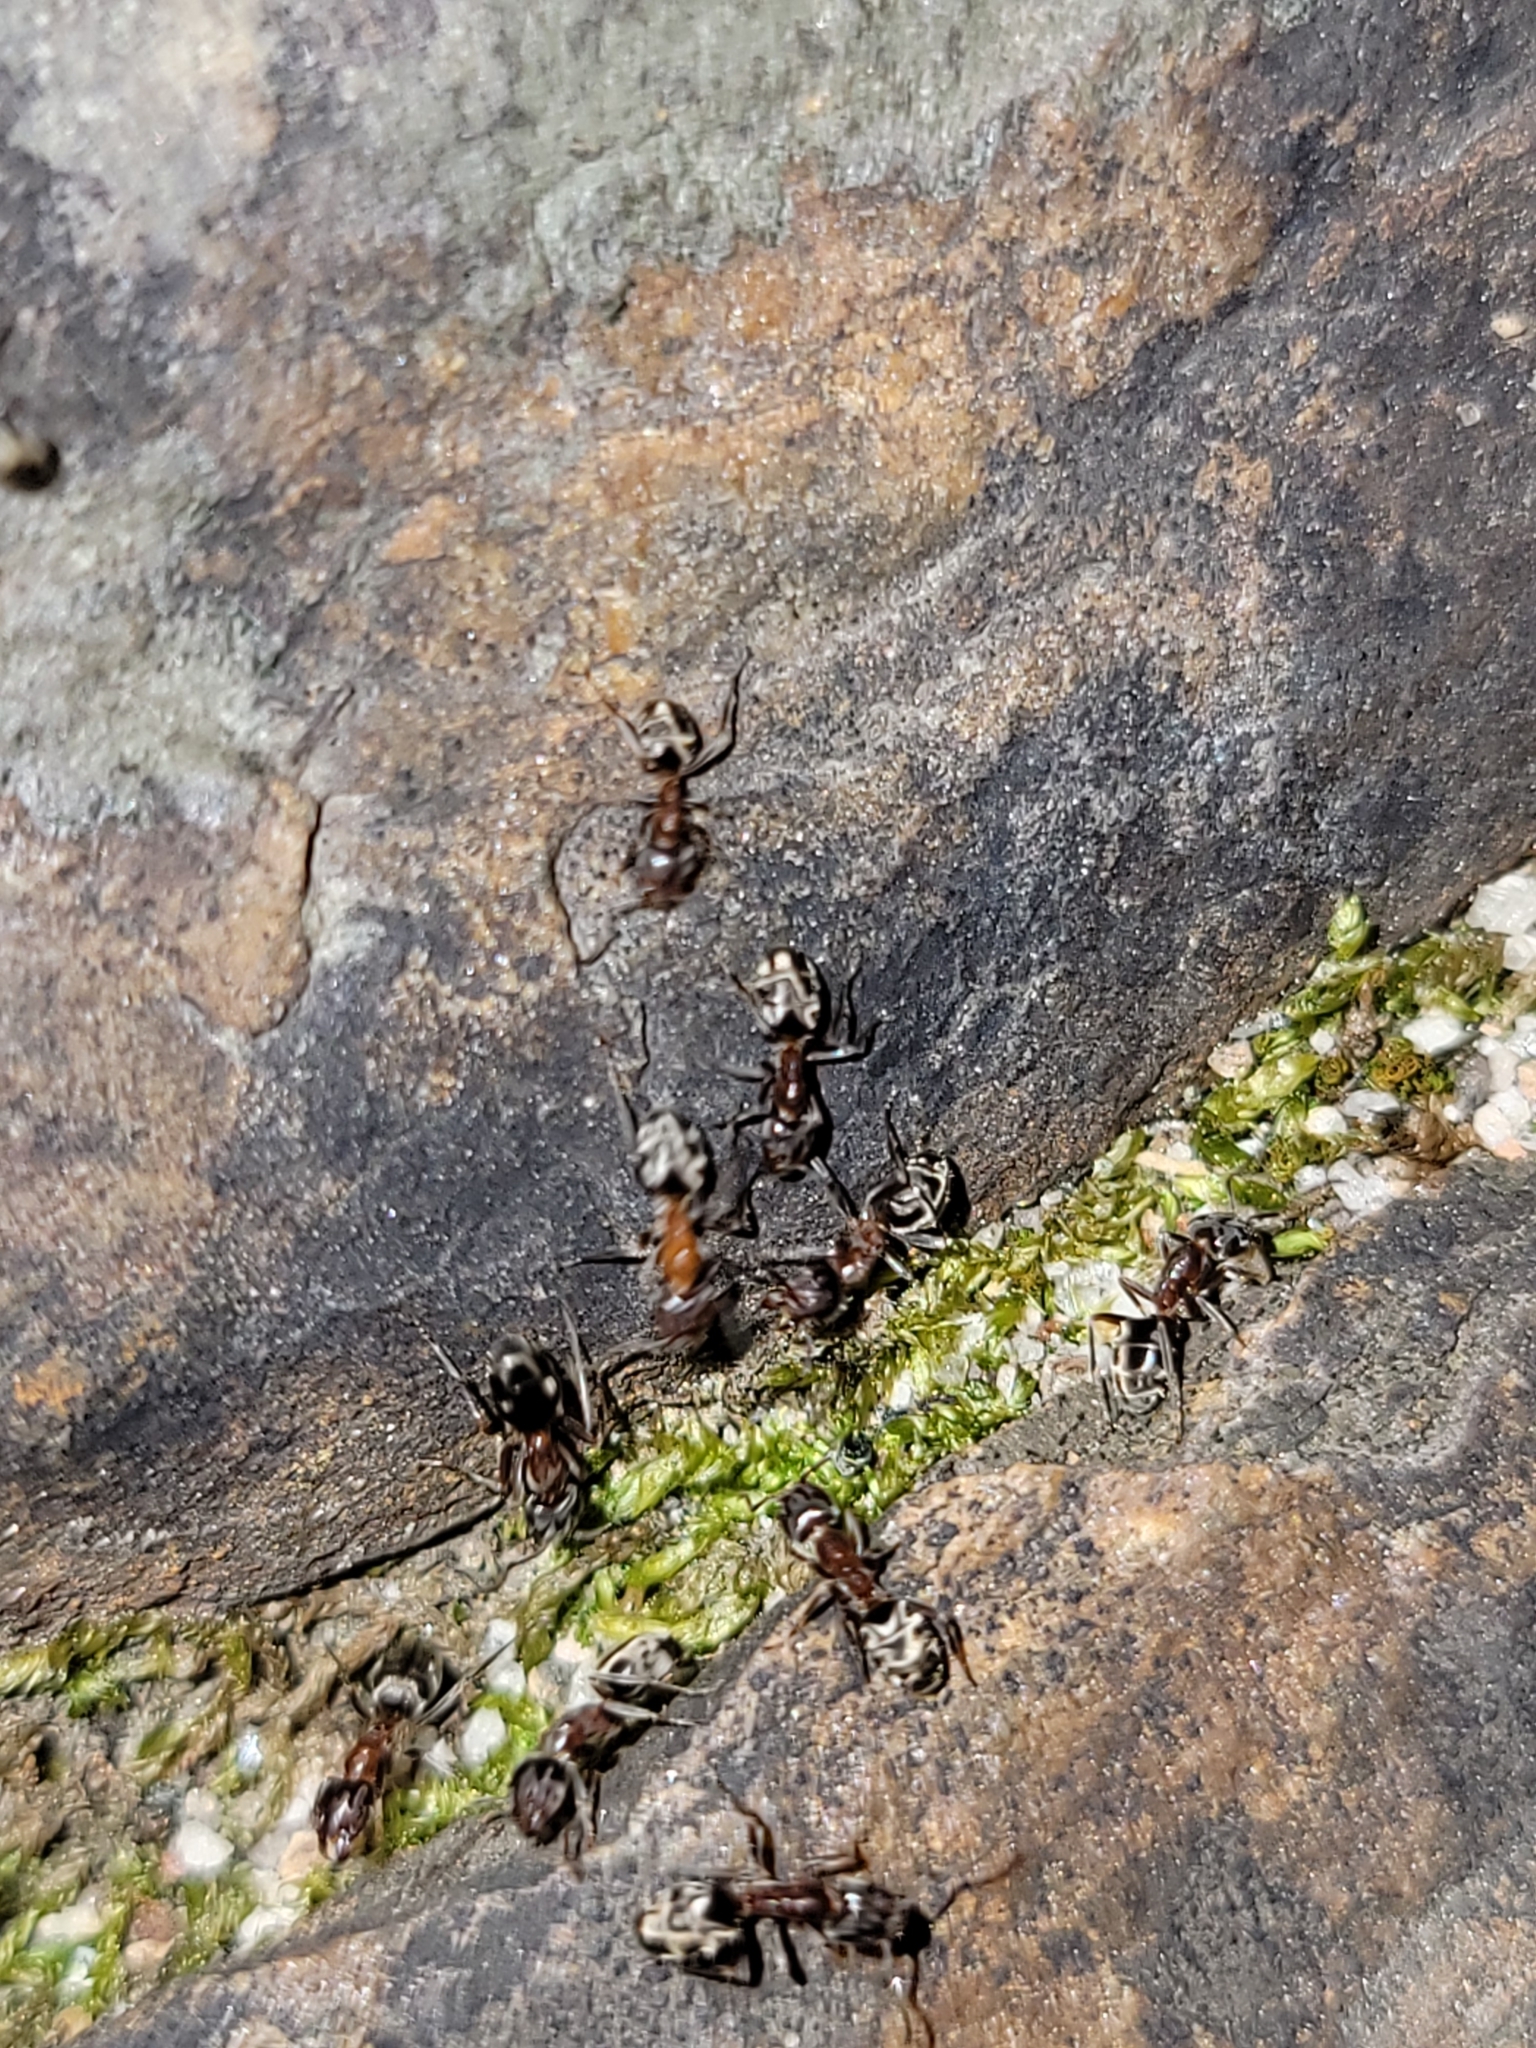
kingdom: Animalia
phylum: Arthropoda
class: Insecta
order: Hymenoptera
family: Formicidae
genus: Liometopum
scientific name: Liometopum occidentale
